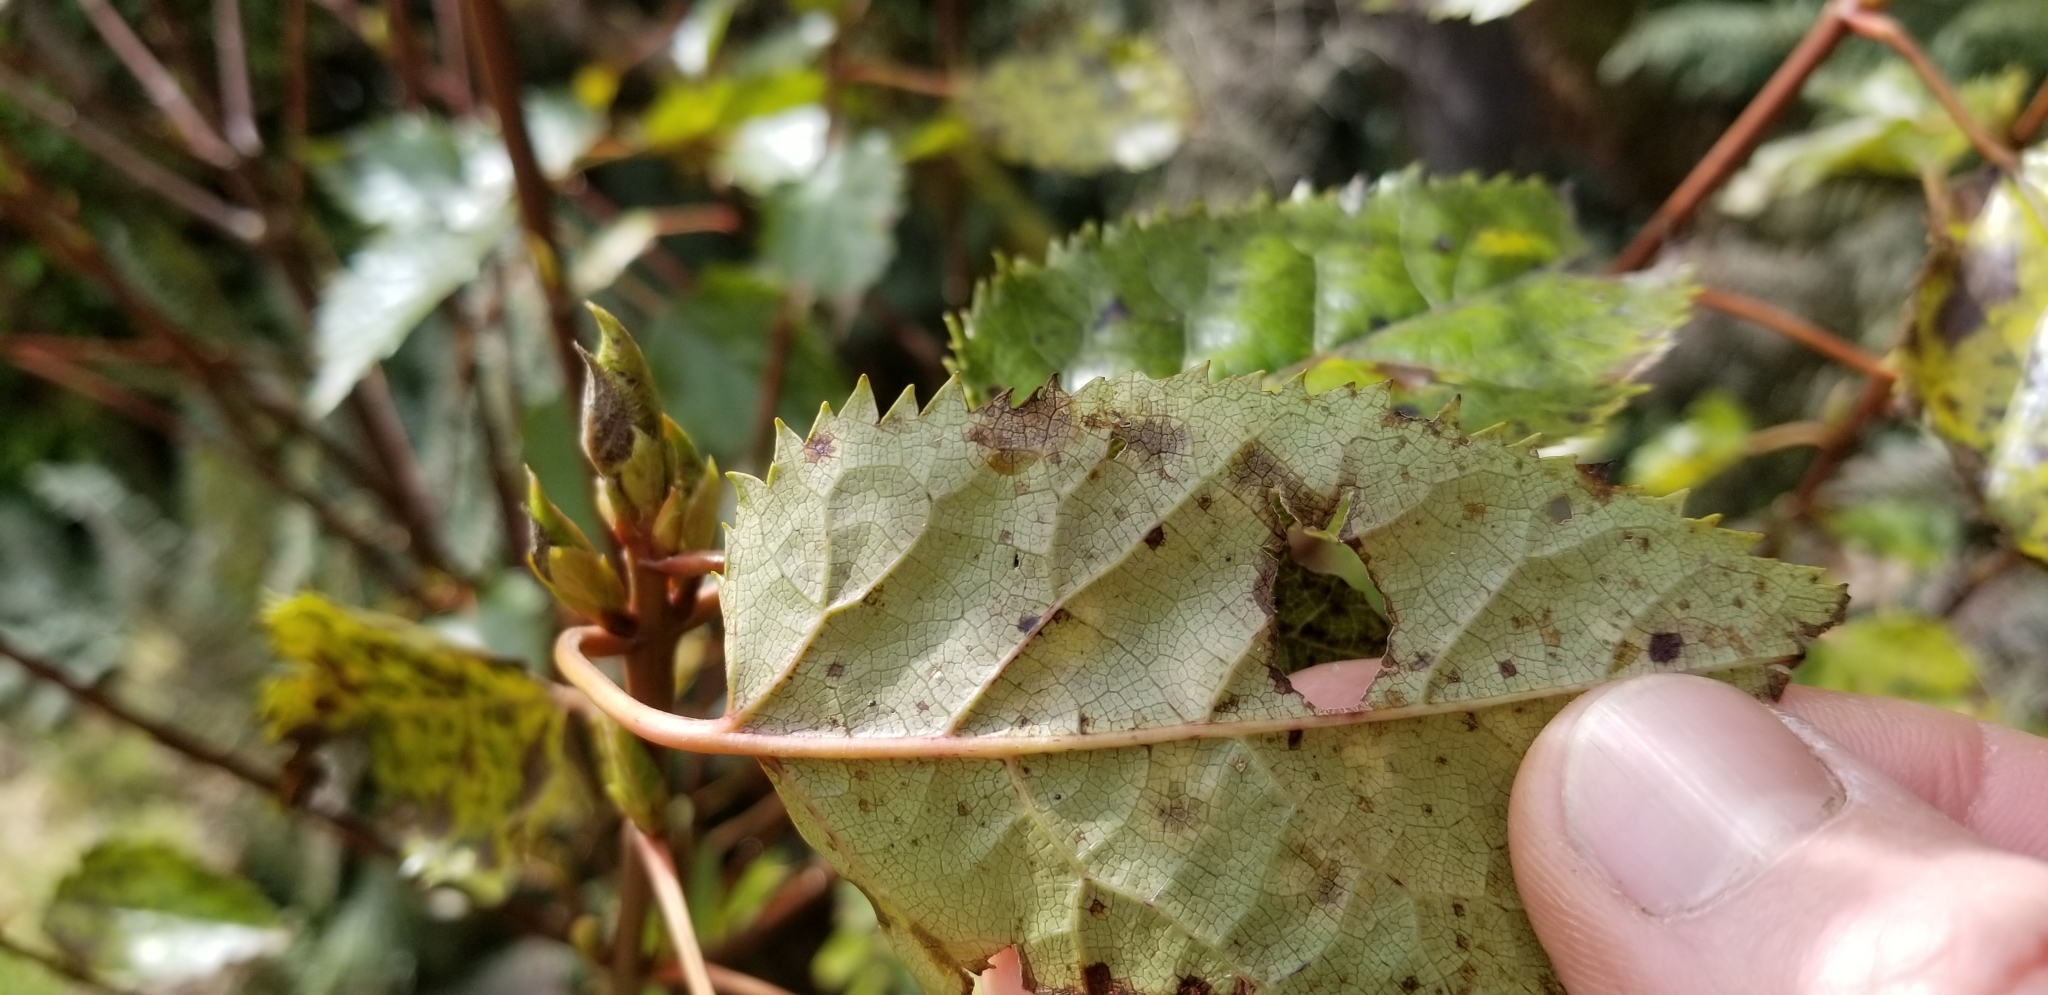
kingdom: Plantae
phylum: Tracheophyta
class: Magnoliopsida
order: Oxalidales
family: Elaeocarpaceae
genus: Aristotelia
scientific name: Aristotelia serrata
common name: New zealand wineberry
